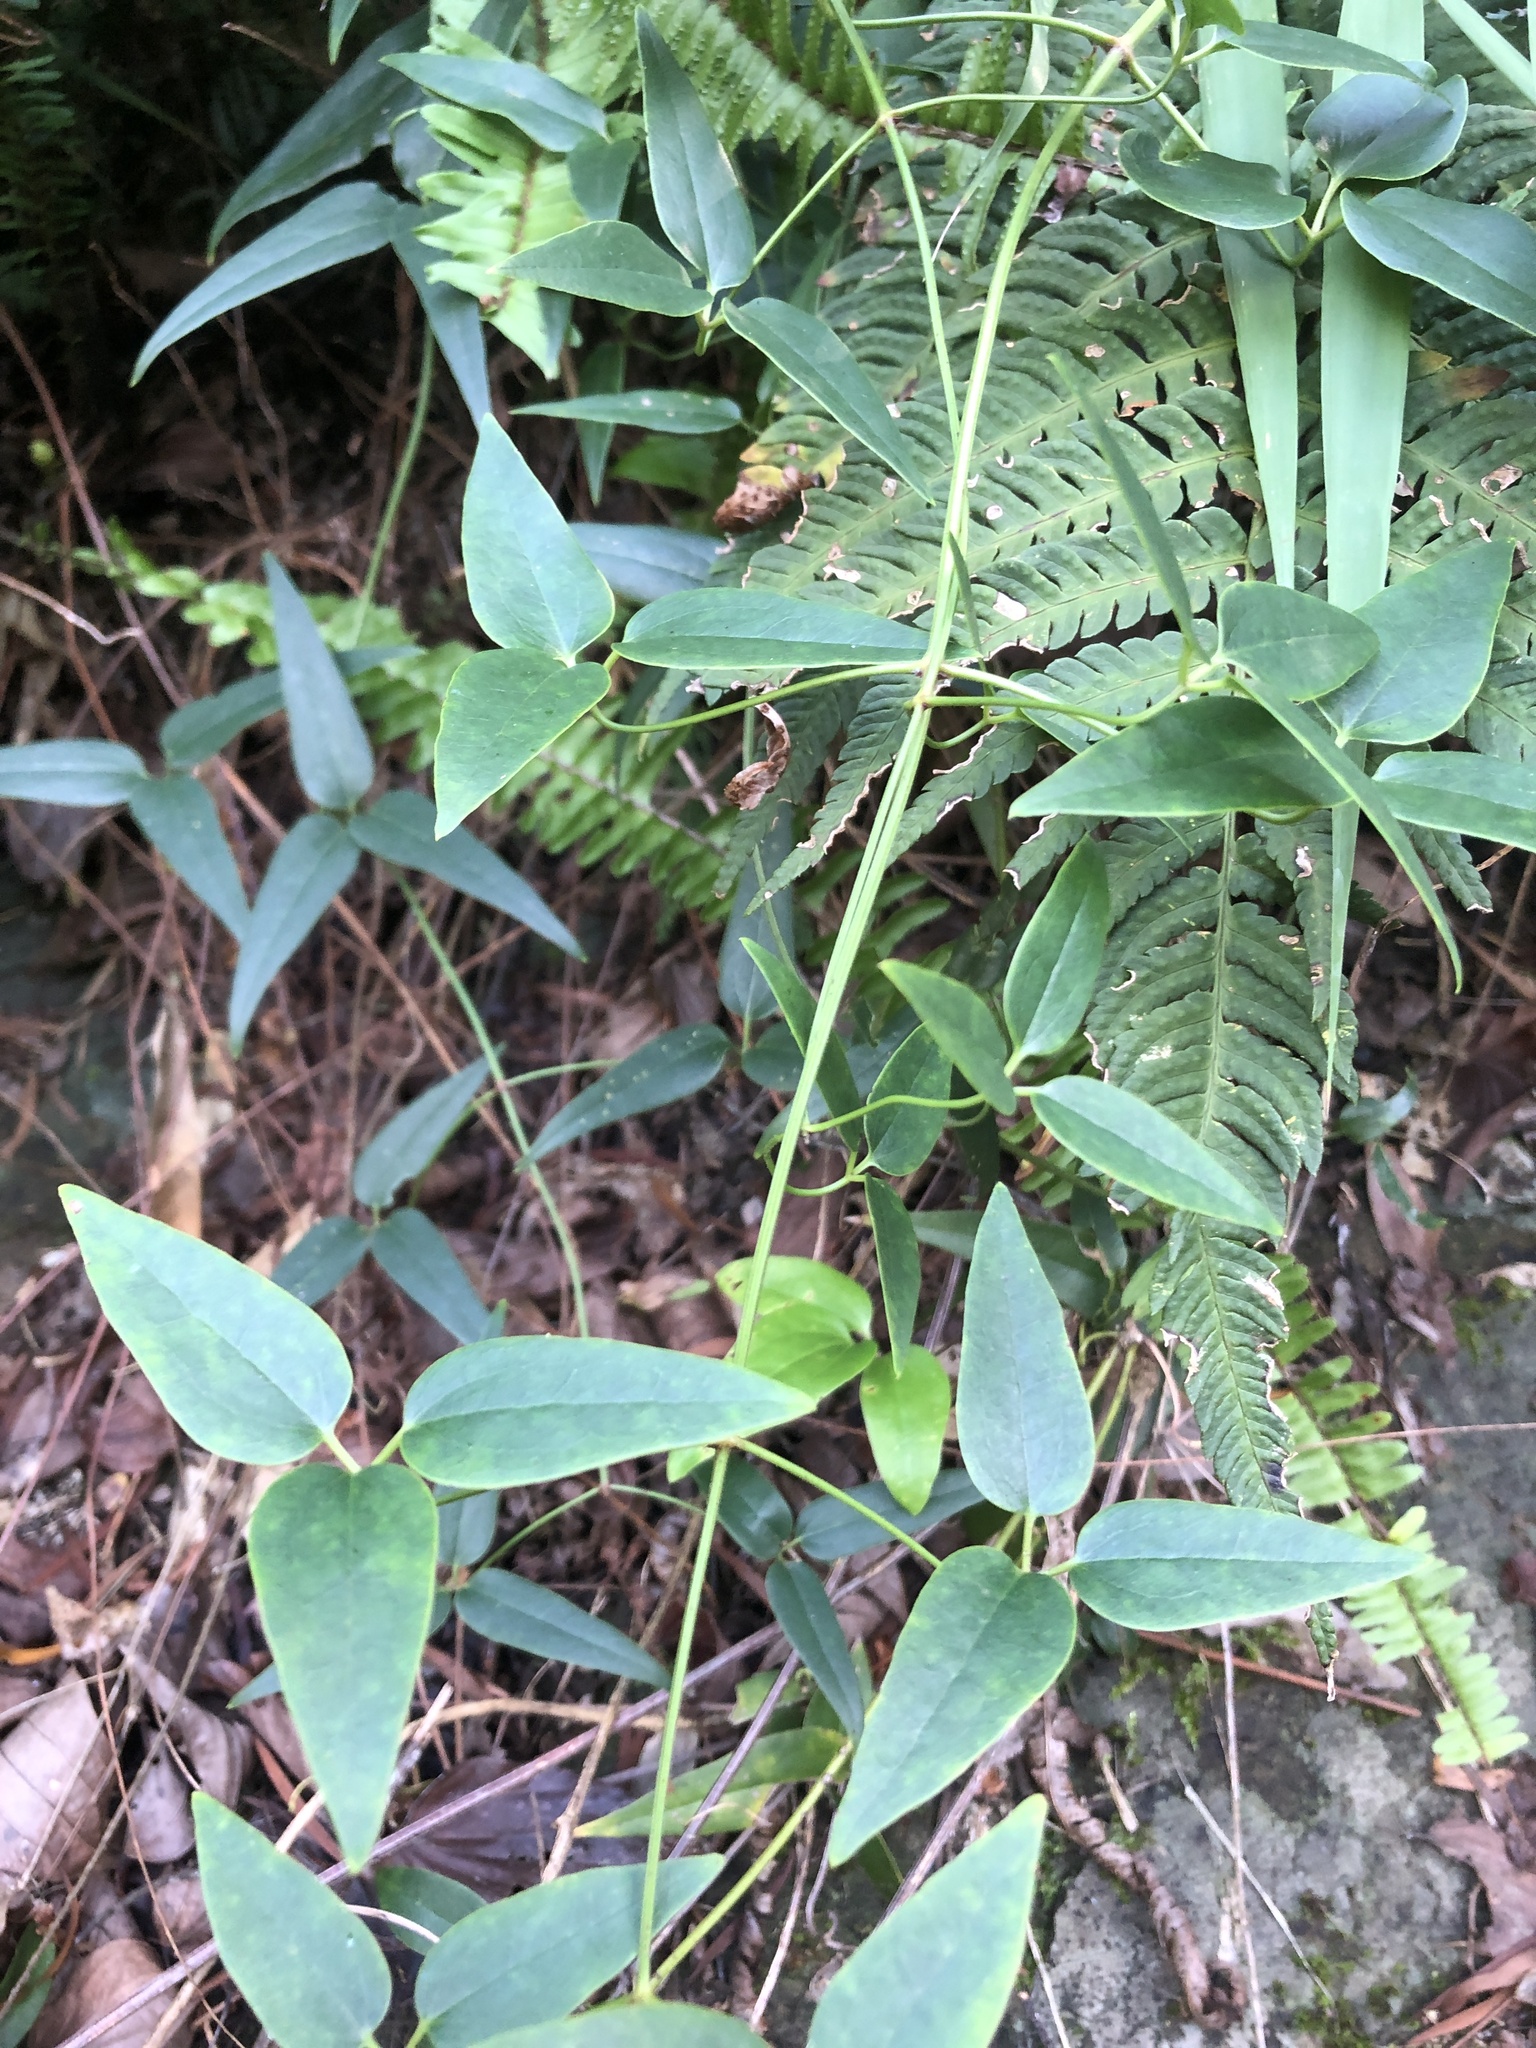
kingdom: Plantae
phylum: Tracheophyta
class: Magnoliopsida
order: Ranunculales
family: Ranunculaceae
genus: Clematis
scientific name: Clematis meyeniana
